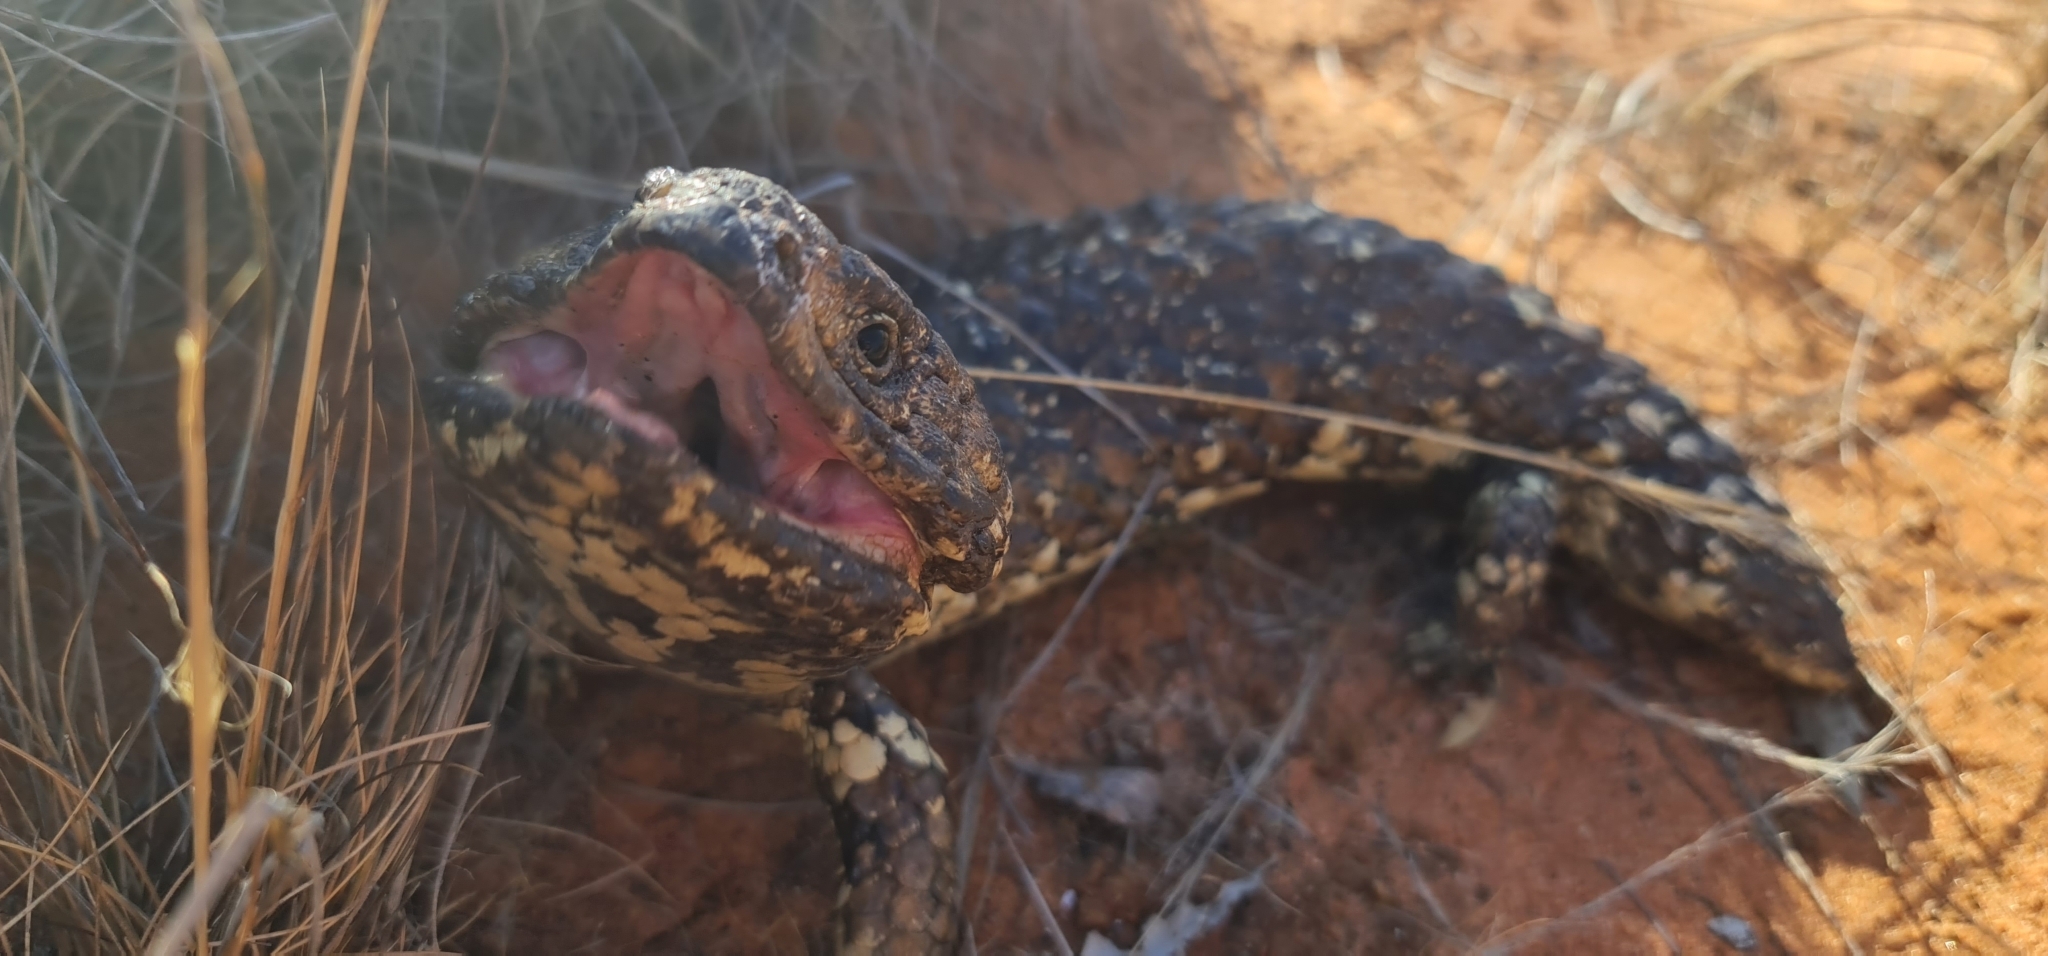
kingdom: Animalia
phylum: Chordata
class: Squamata
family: Scincidae
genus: Tiliqua
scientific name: Tiliqua rugosa
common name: Pinecone lizard
